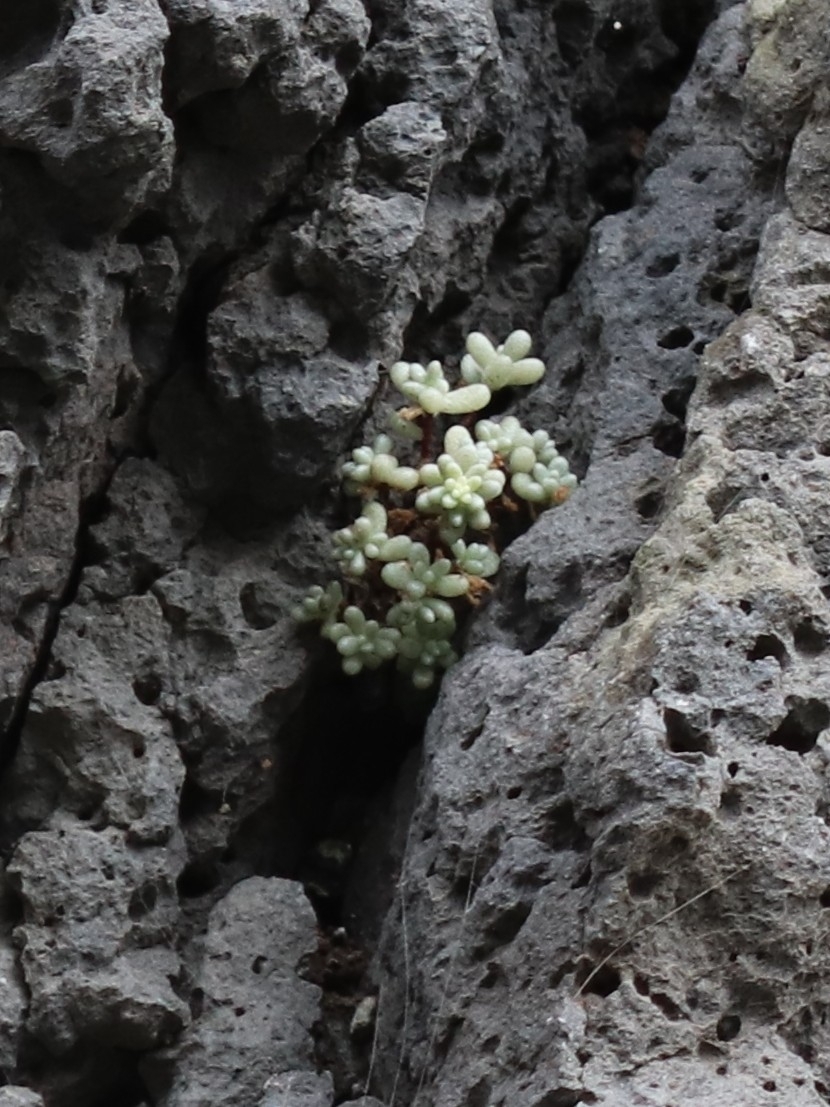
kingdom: Plantae
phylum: Tracheophyta
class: Magnoliopsida
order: Saxifragales
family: Crassulaceae
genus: Sedum
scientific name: Sedum brissemoretii
